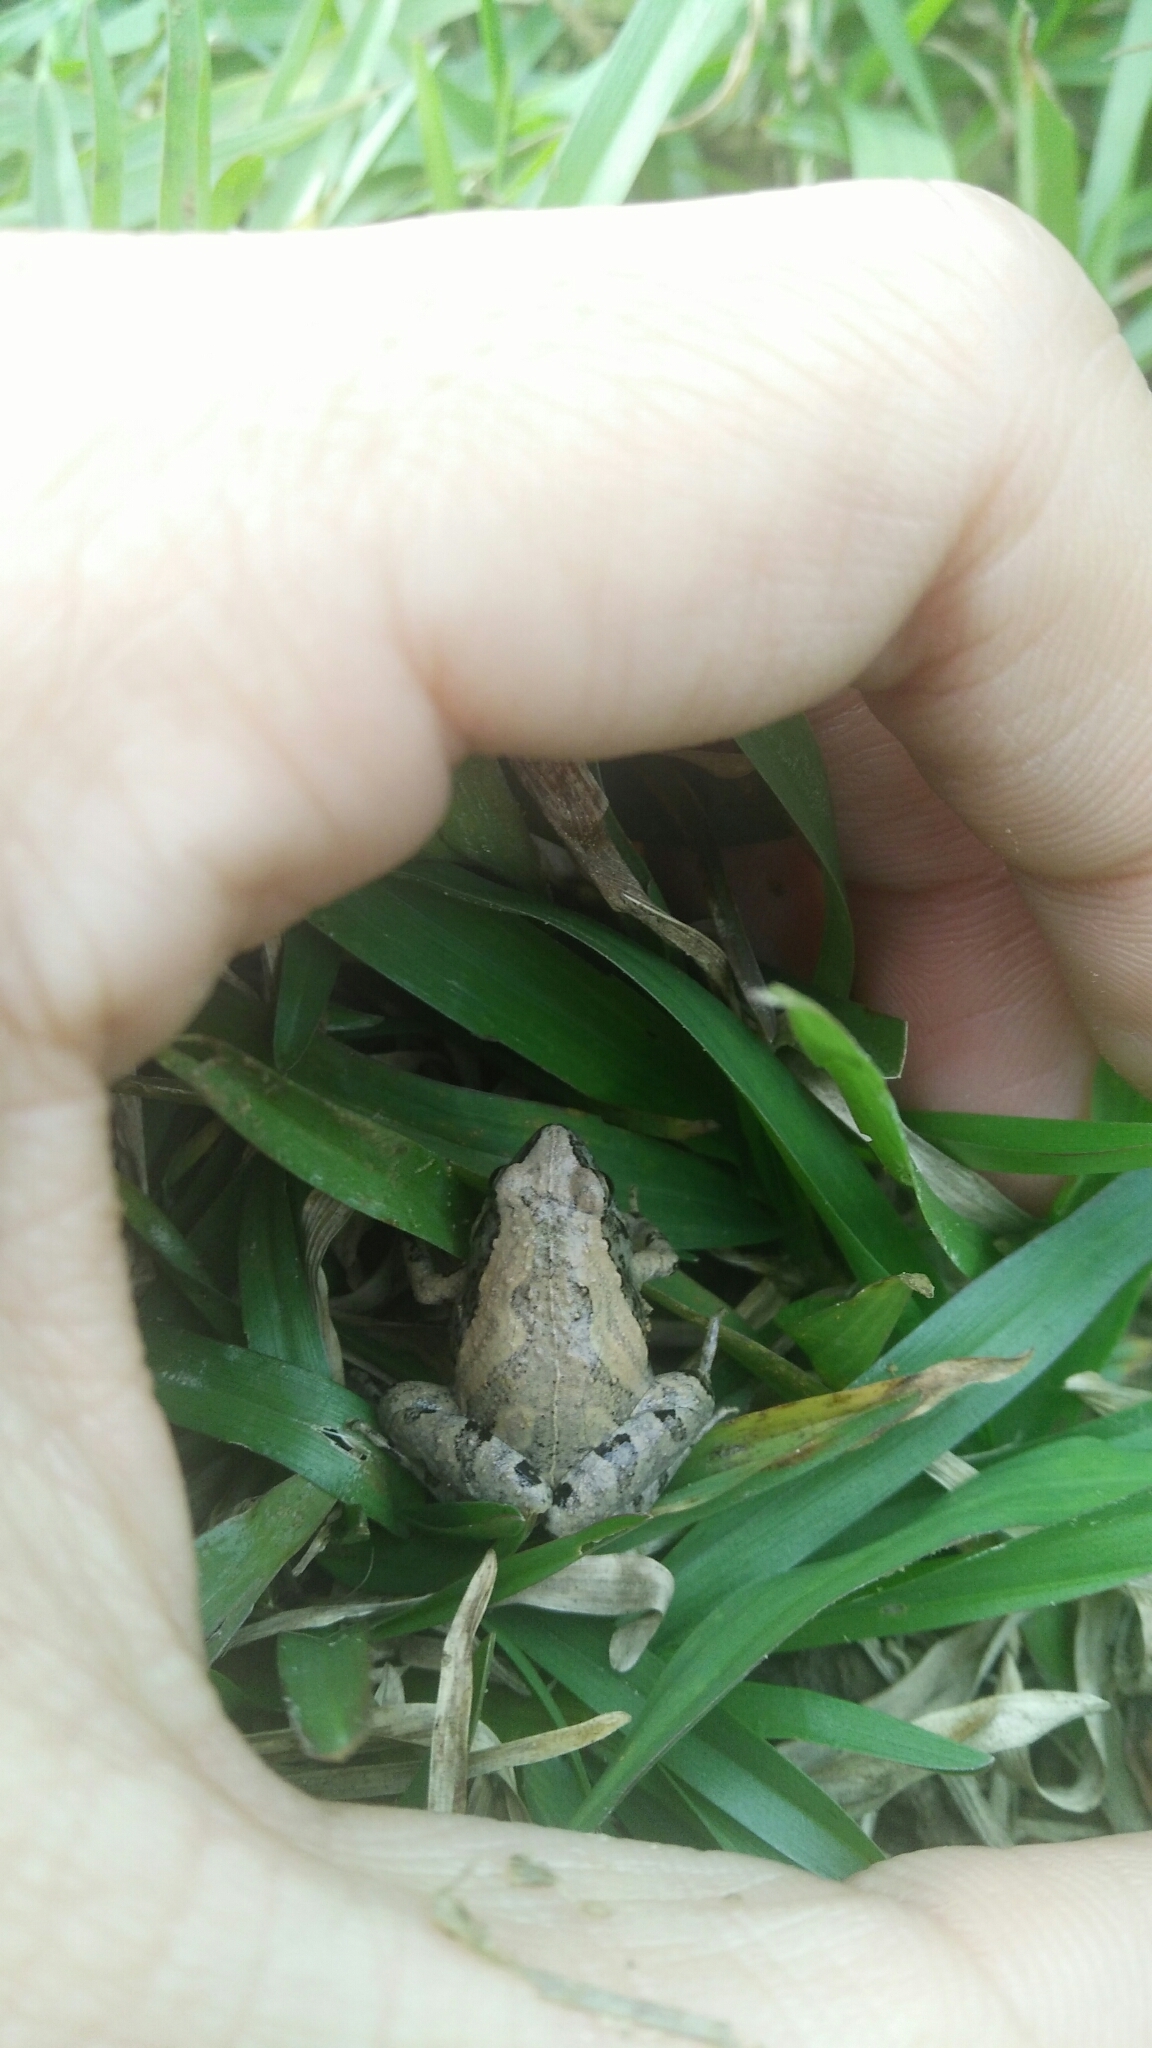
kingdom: Animalia
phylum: Chordata
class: Amphibia
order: Anura
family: Microhylidae
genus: Microhyla
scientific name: Microhyla fissipes
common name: Ornate narrow-mouthed frog
